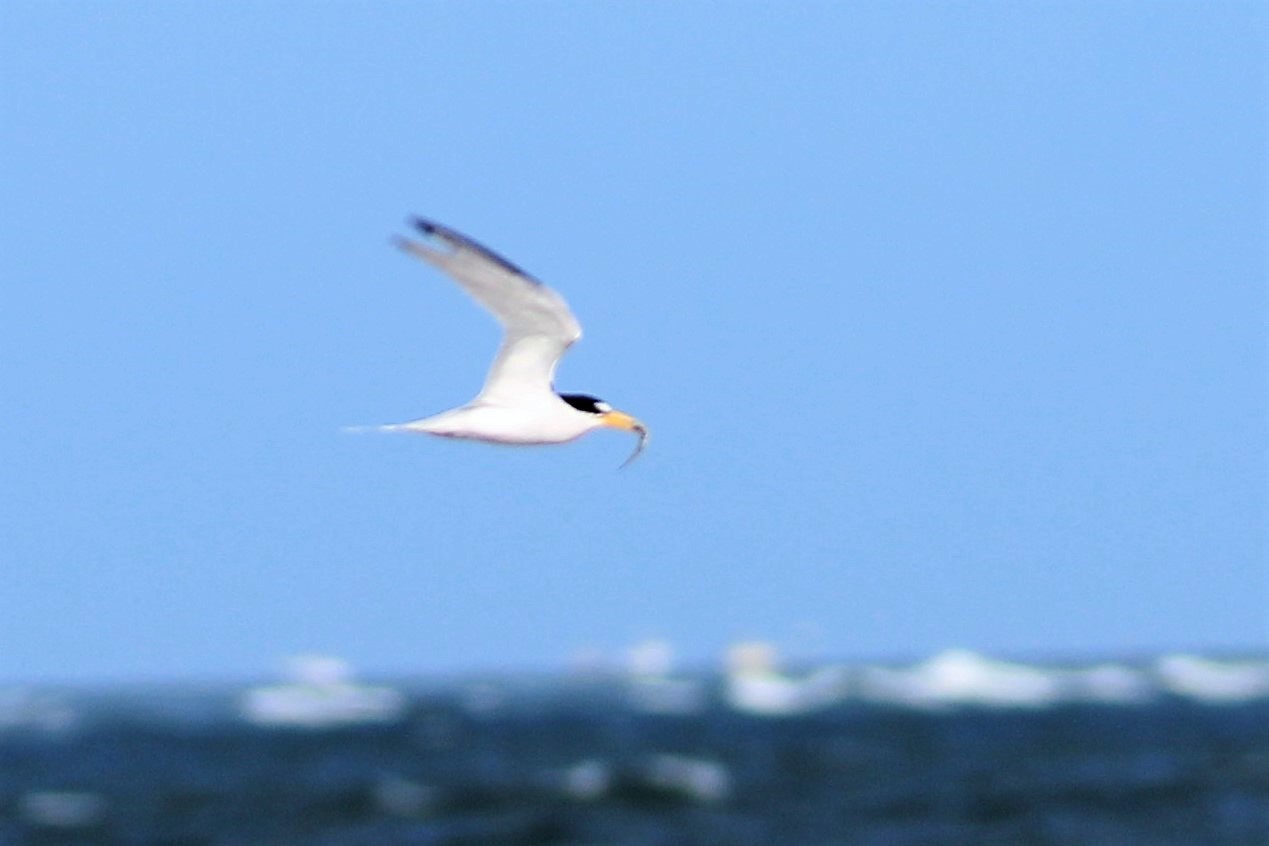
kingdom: Animalia
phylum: Chordata
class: Aves
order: Charadriiformes
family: Laridae
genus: Sternula
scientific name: Sternula antillarum
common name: Least tern
